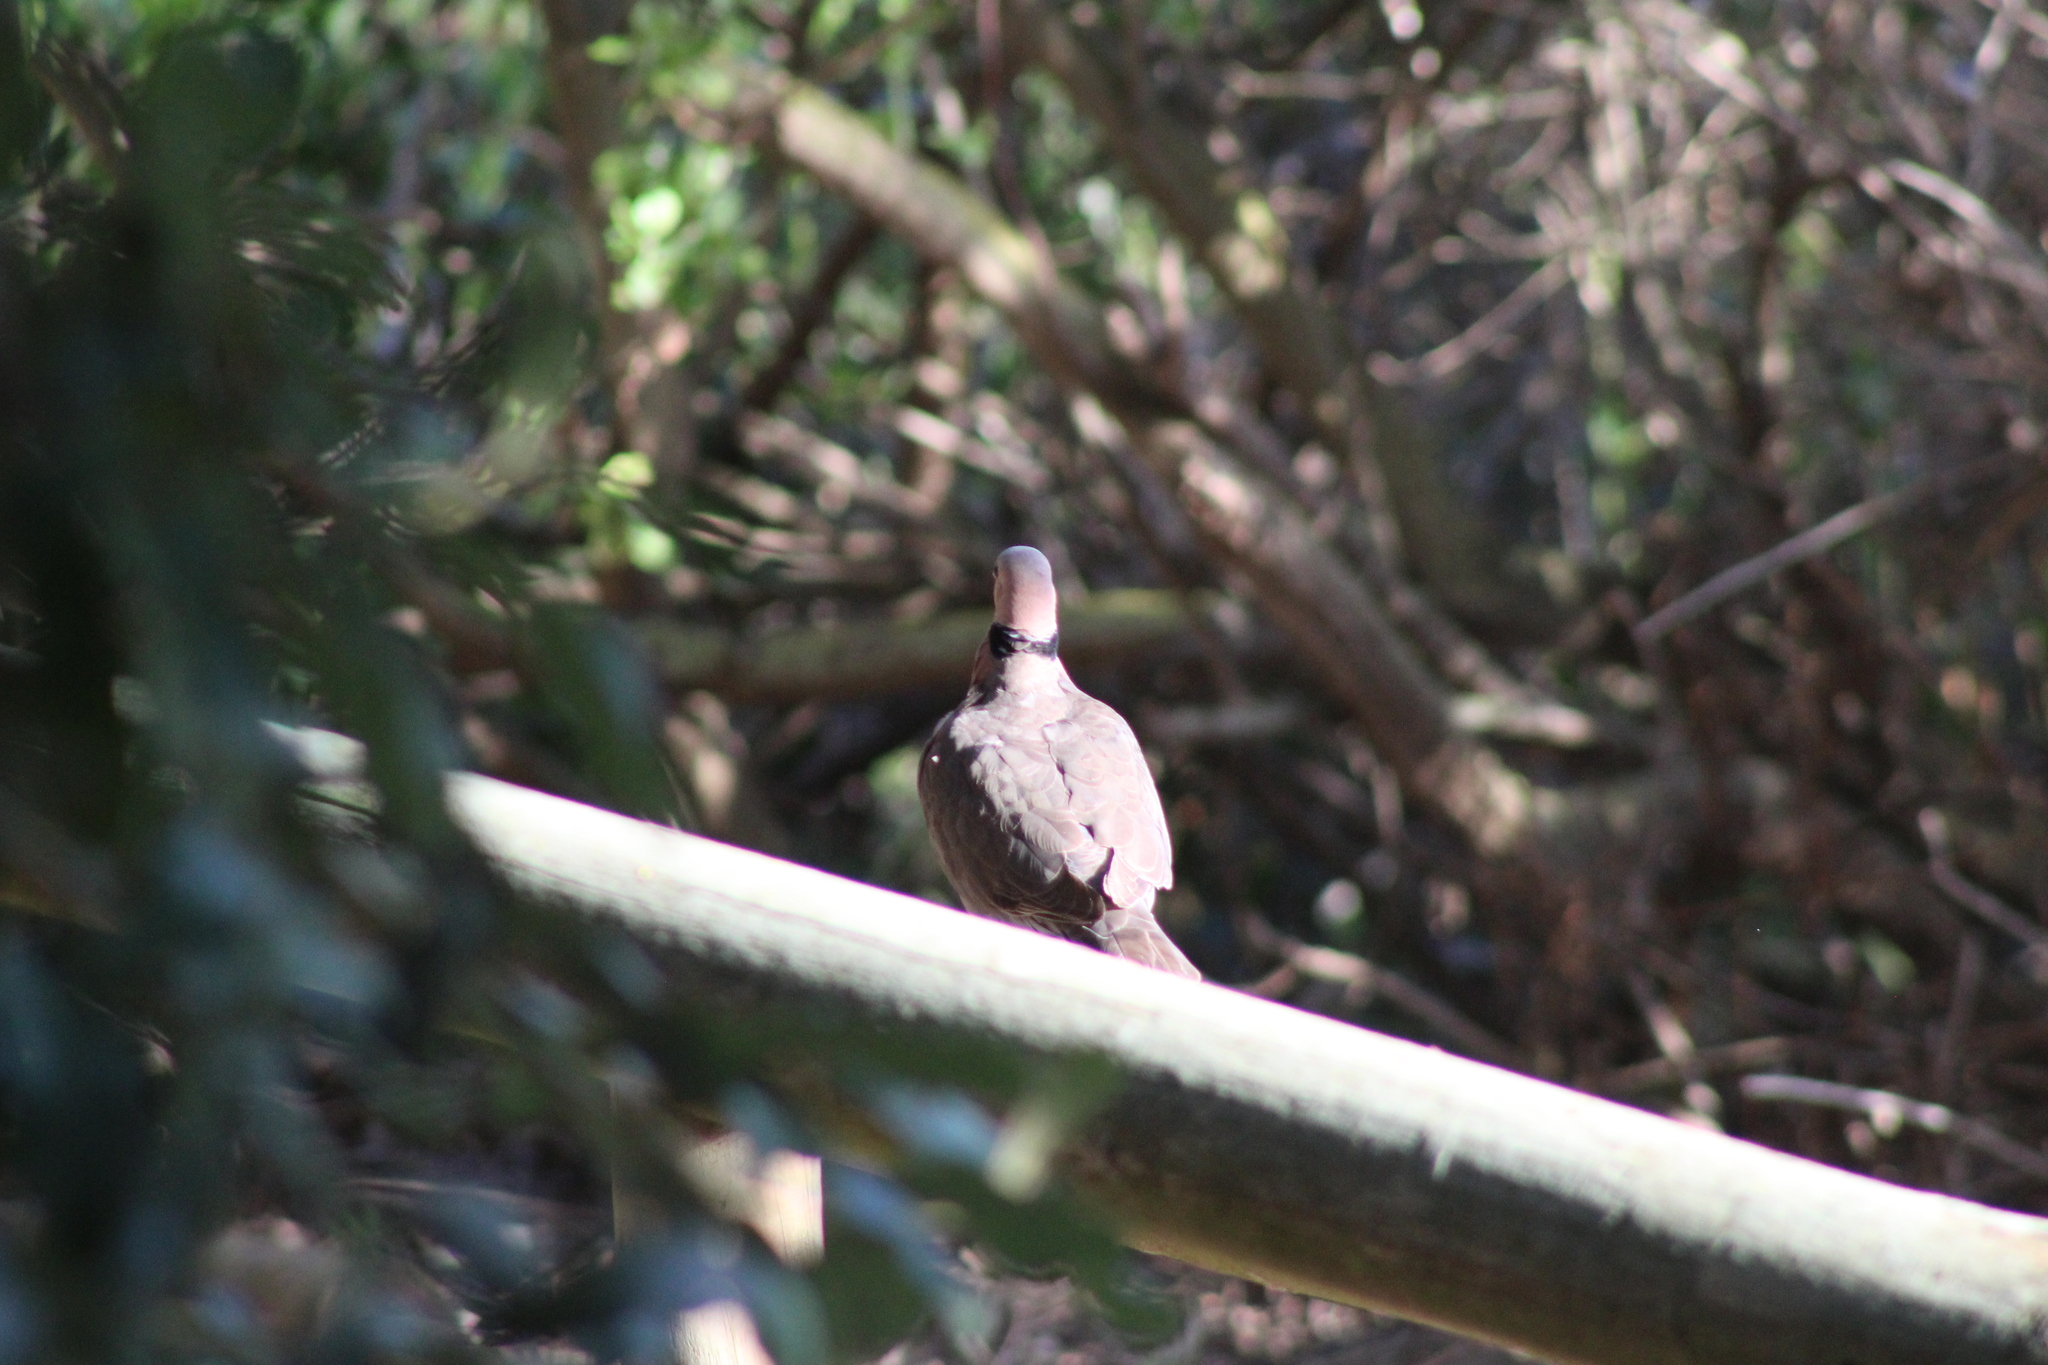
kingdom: Animalia
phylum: Chordata
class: Aves
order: Columbiformes
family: Columbidae
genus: Streptopelia
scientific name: Streptopelia semitorquata
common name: Red-eyed dove
